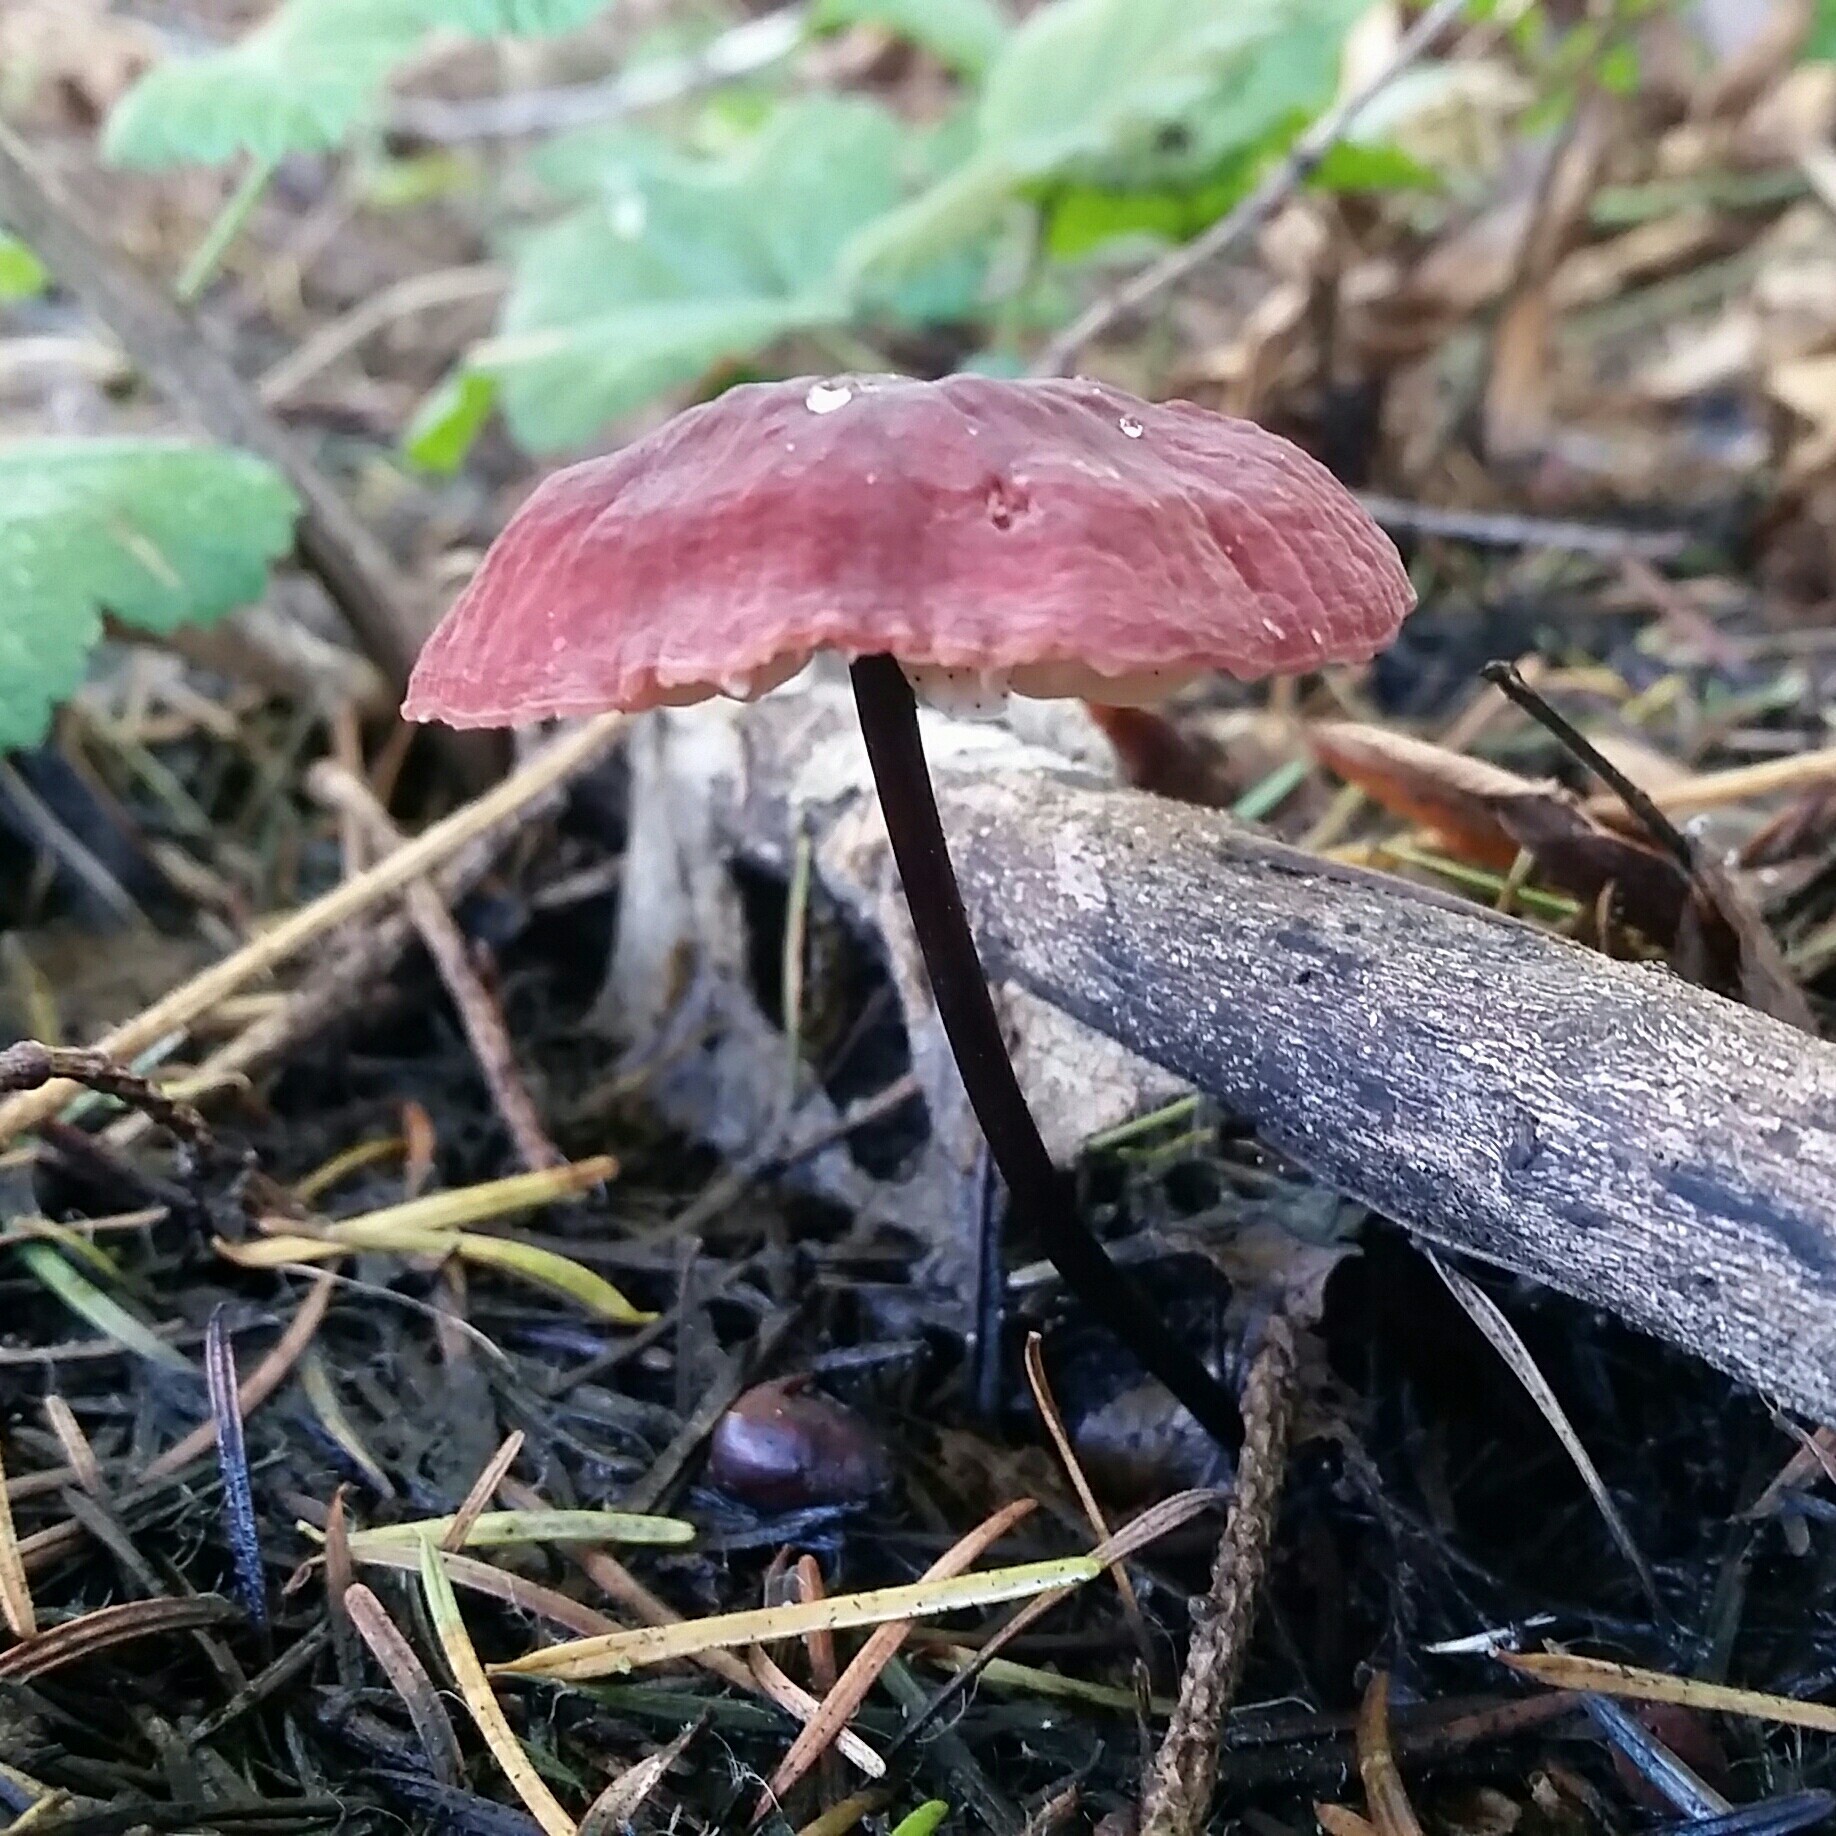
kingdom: Fungi
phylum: Basidiomycota
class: Agaricomycetes
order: Agaricales
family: Marasmiaceae
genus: Marasmius
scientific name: Marasmius plicatulus
